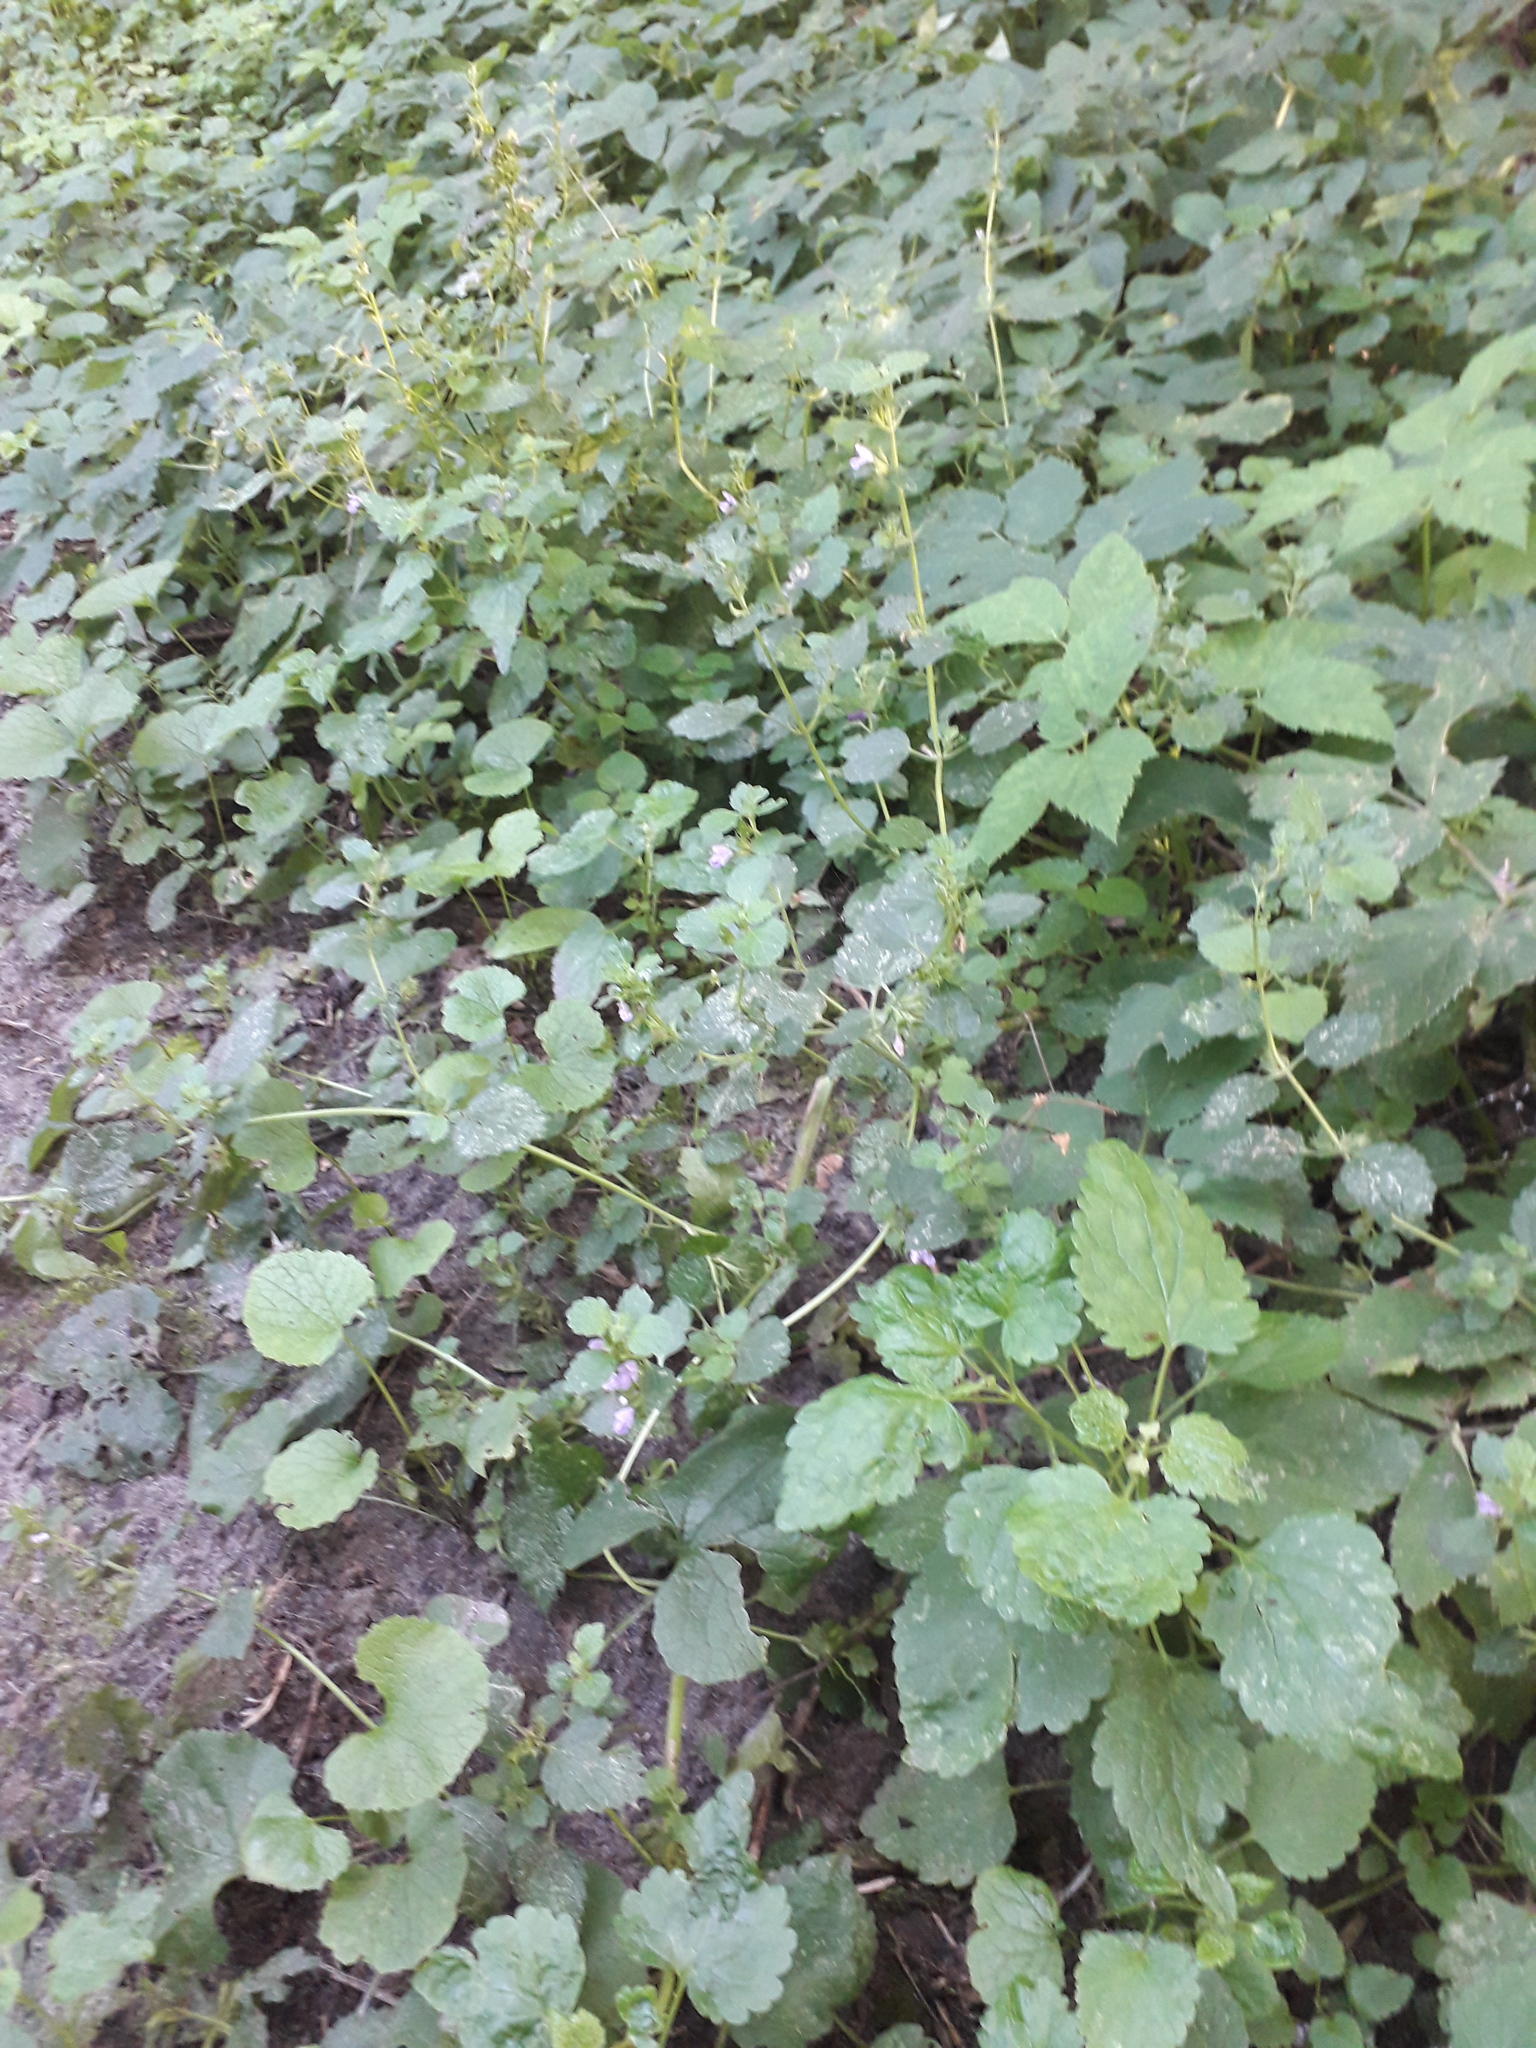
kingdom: Plantae
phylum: Tracheophyta
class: Magnoliopsida
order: Lamiales
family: Lamiaceae
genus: Glechoma
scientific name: Glechoma hederacea
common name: Ground ivy
